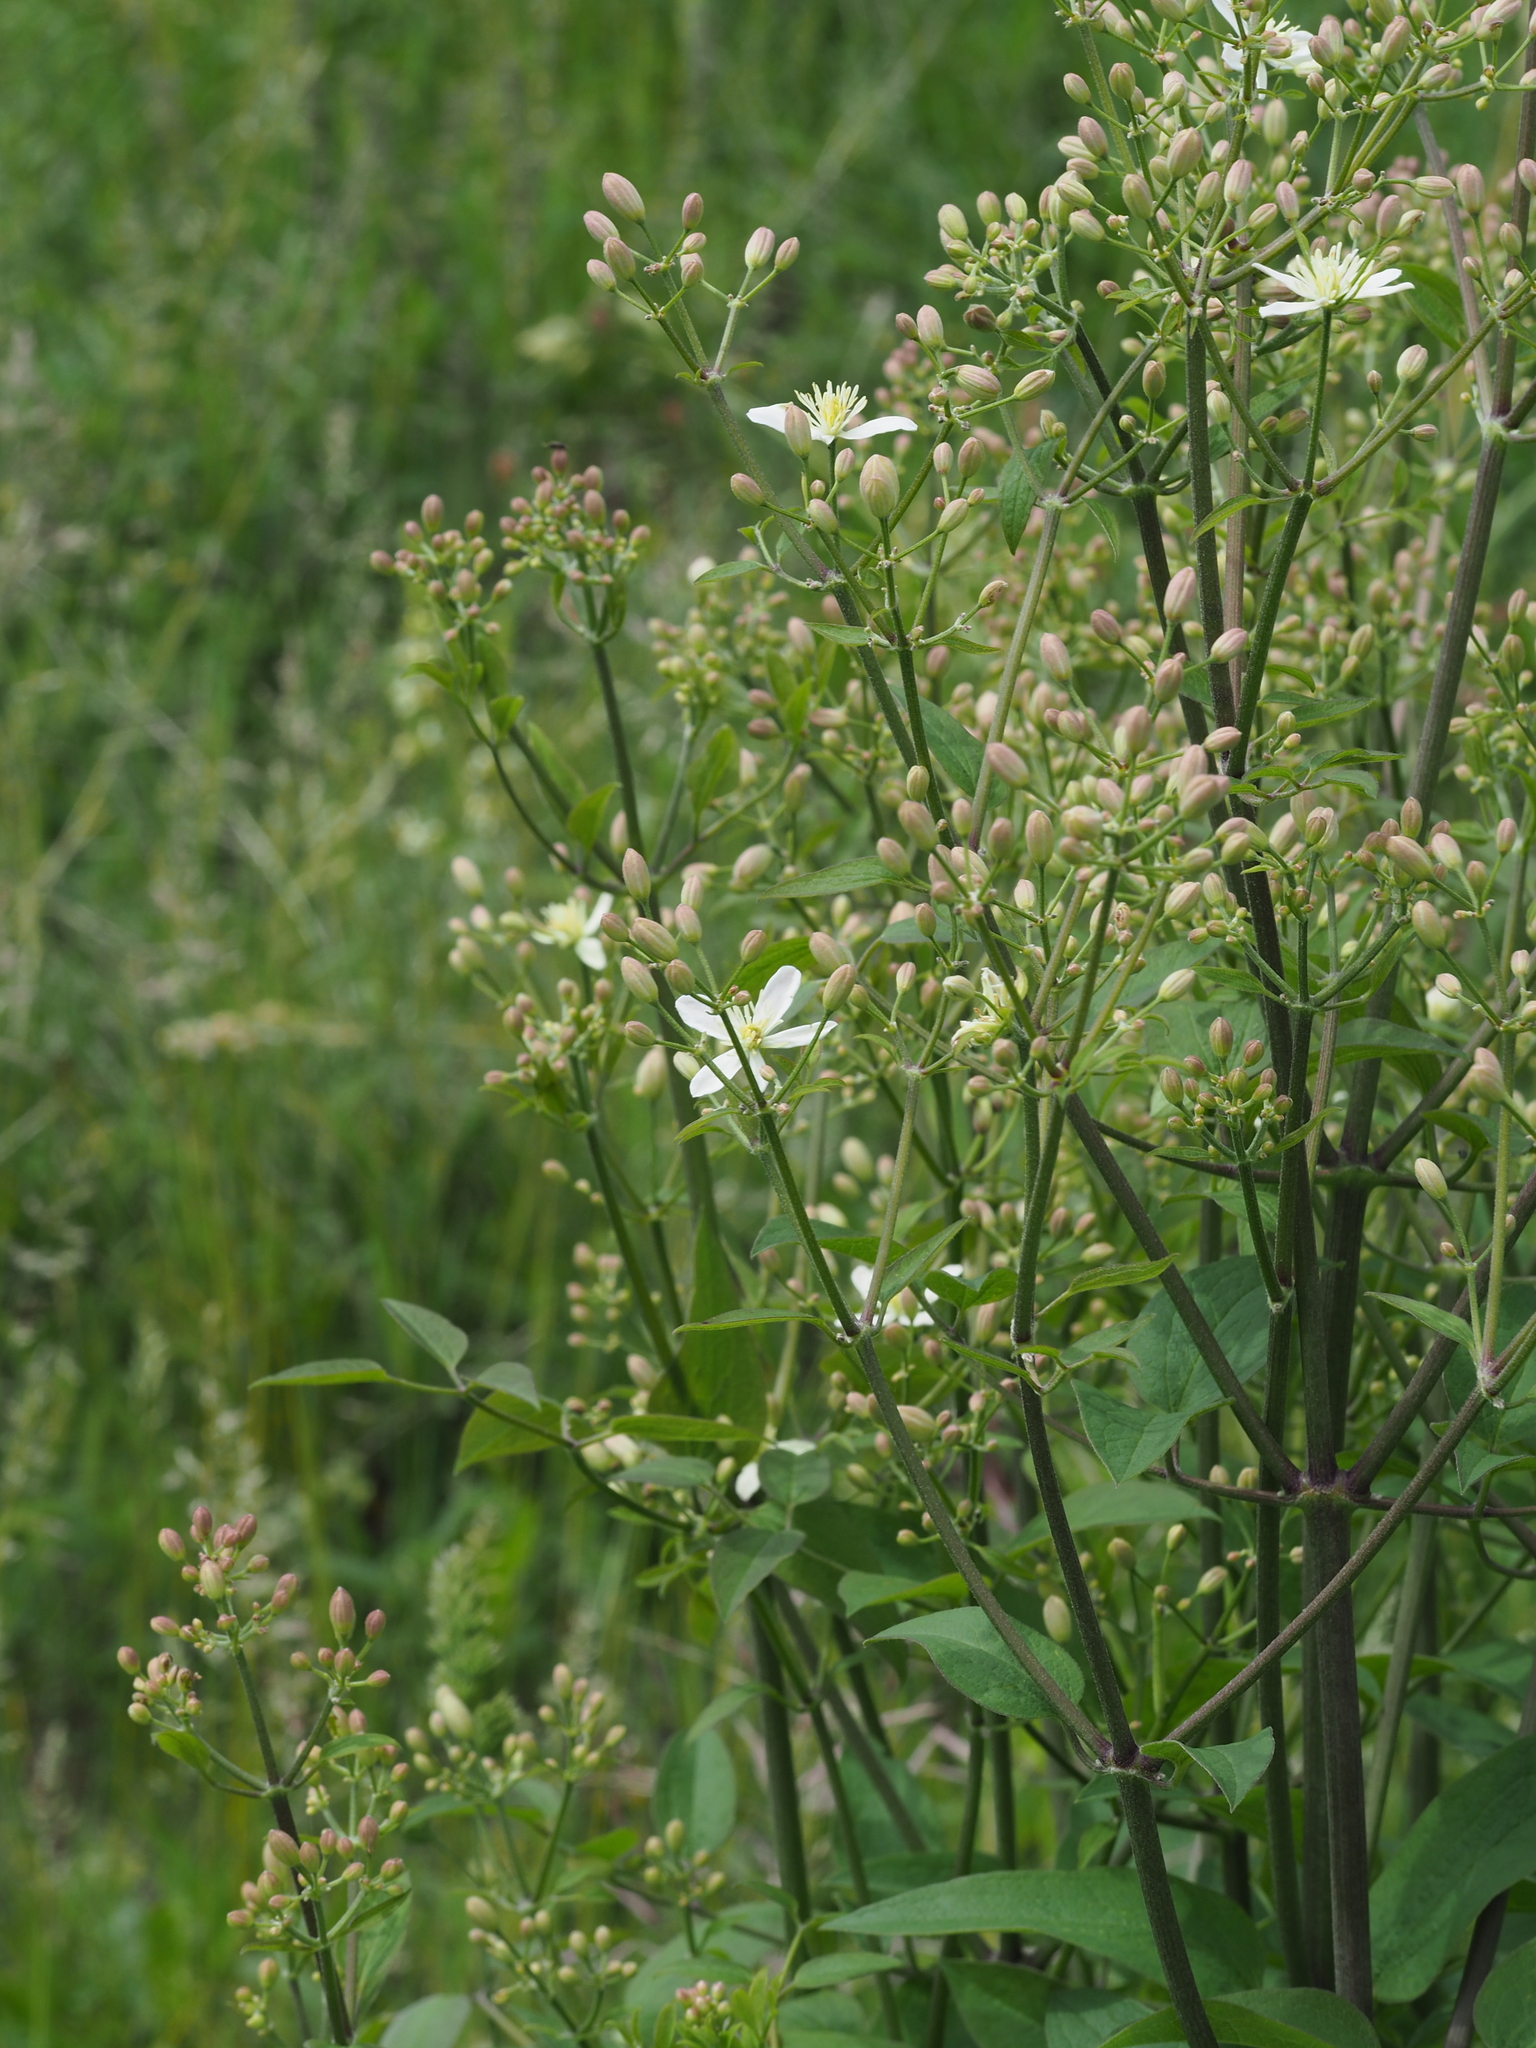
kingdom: Plantae
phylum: Tracheophyta
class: Magnoliopsida
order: Ranunculales
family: Ranunculaceae
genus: Clematis
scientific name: Clematis recta
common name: Ground clematis
